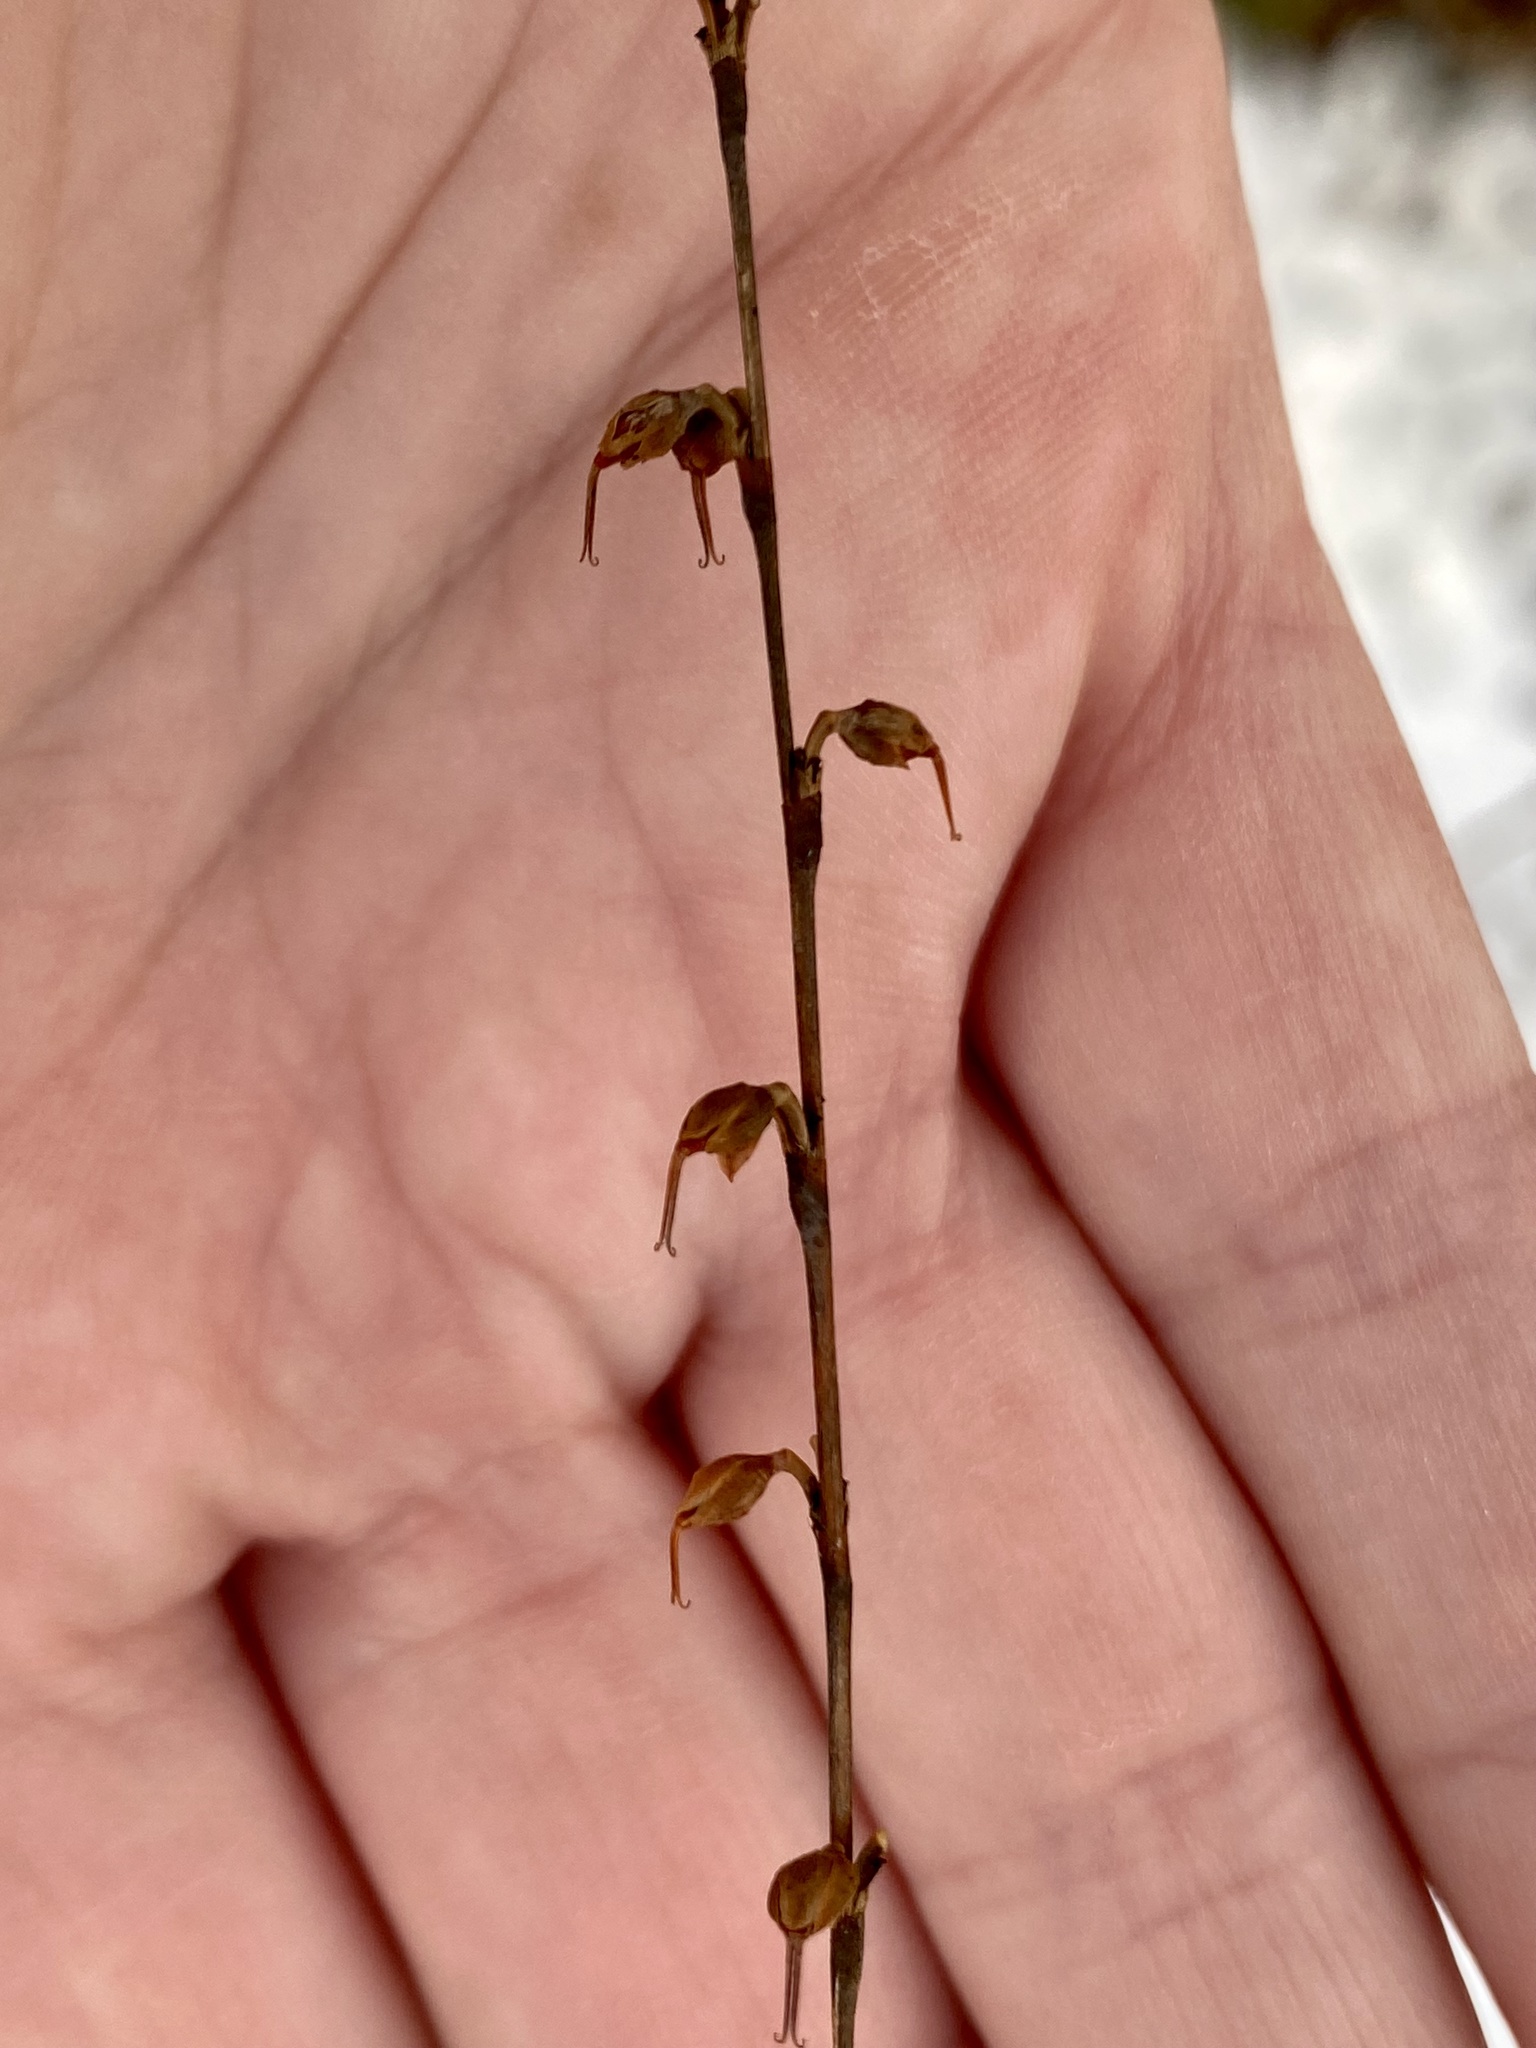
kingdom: Plantae
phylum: Tracheophyta
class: Magnoliopsida
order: Caryophyllales
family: Polygonaceae
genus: Persicaria
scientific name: Persicaria virginiana
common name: Jumpseed
